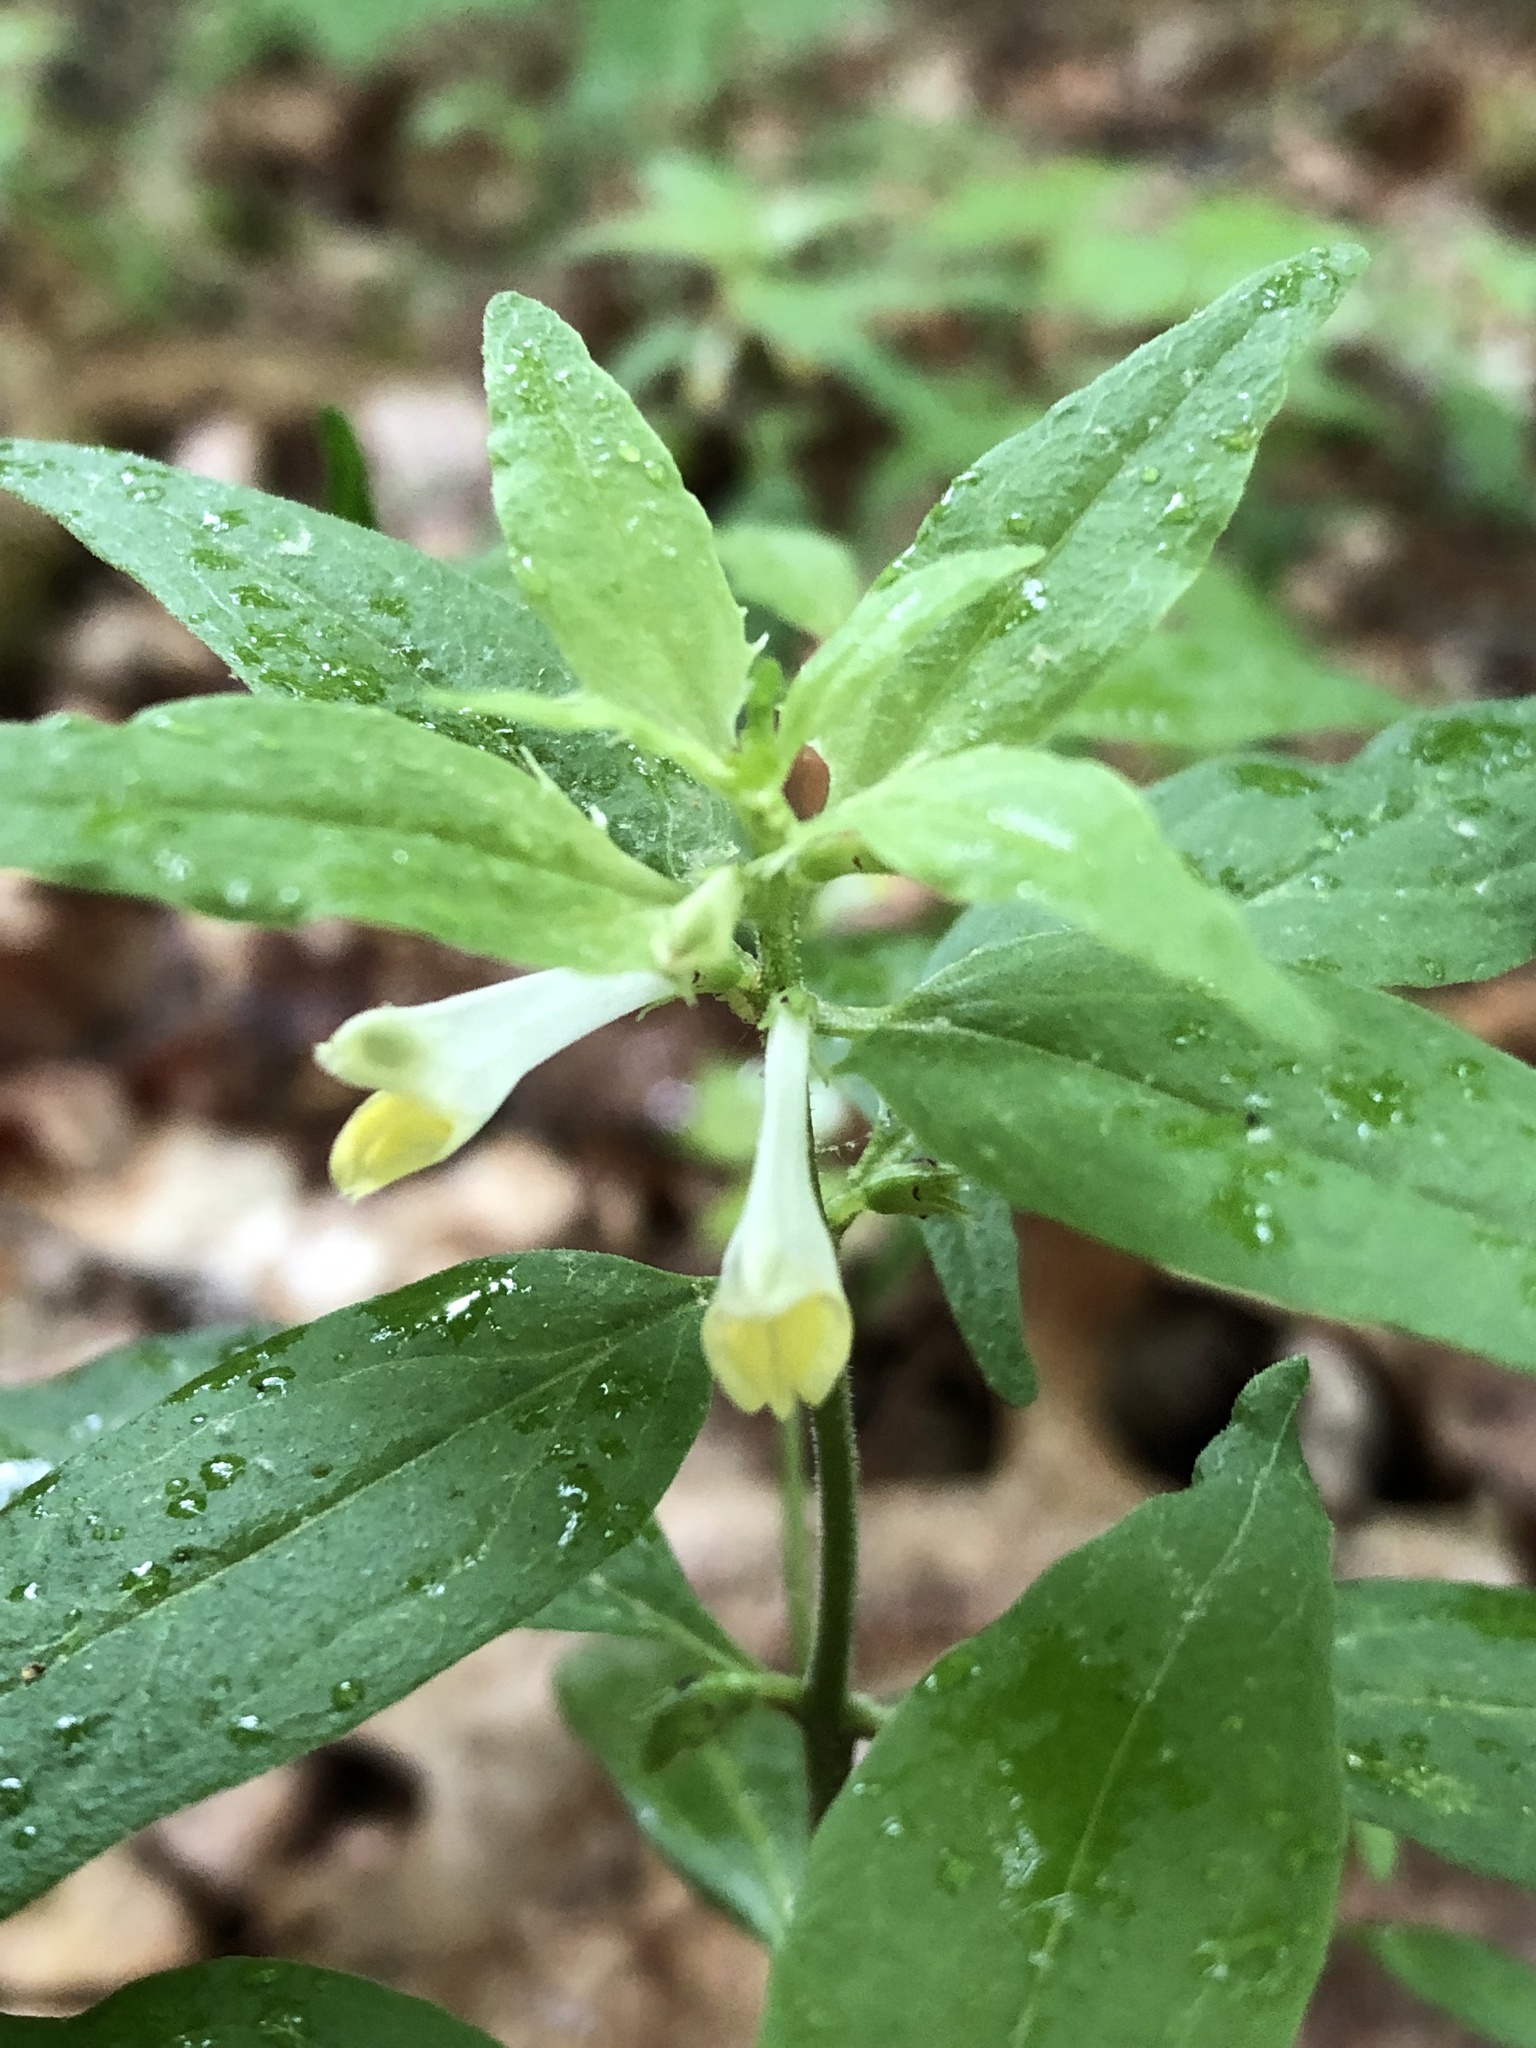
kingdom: Plantae
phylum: Tracheophyta
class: Magnoliopsida
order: Lamiales
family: Orobanchaceae
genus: Melampyrum
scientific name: Melampyrum lineare
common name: American cow-wheat
